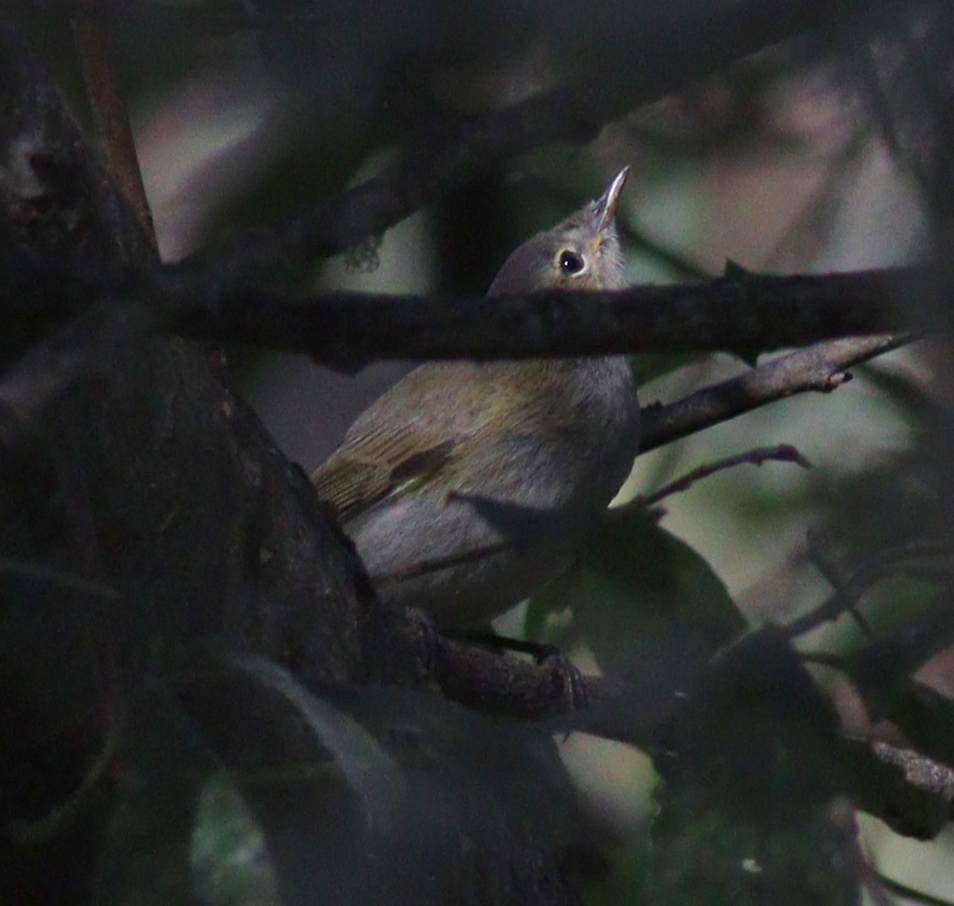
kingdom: Animalia
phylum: Chordata
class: Aves
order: Passeriformes
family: Phylloscopidae
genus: Phylloscopus
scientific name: Phylloscopus collybita
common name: Common chiffchaff
